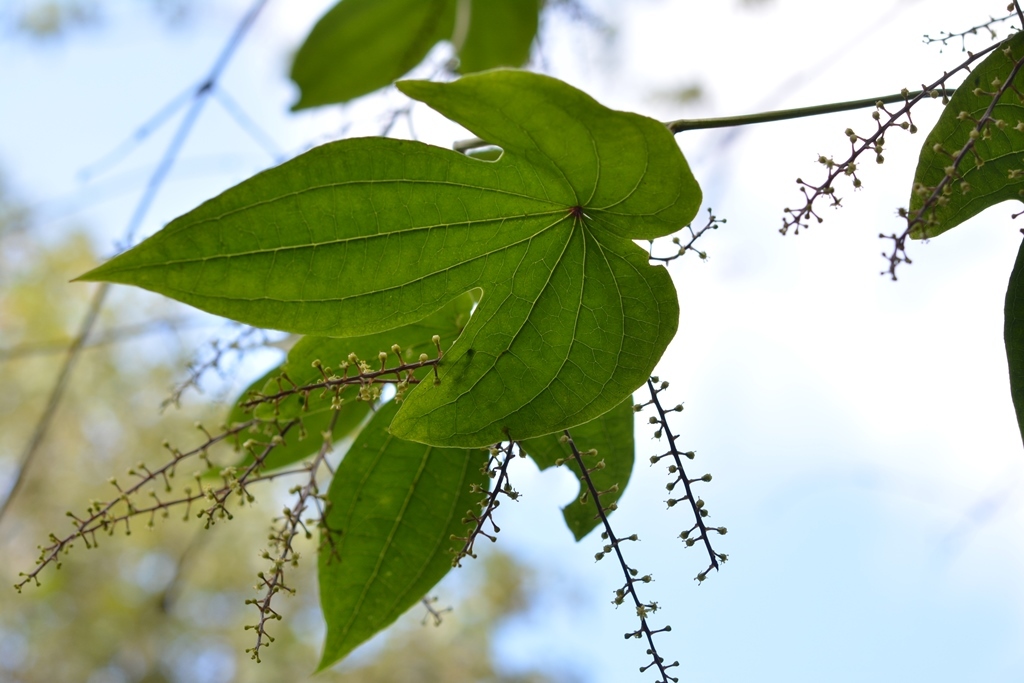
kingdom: Plantae
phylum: Tracheophyta
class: Liliopsida
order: Dioscoreales
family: Dioscoreaceae
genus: Dioscorea
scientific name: Dioscorea howardiana
